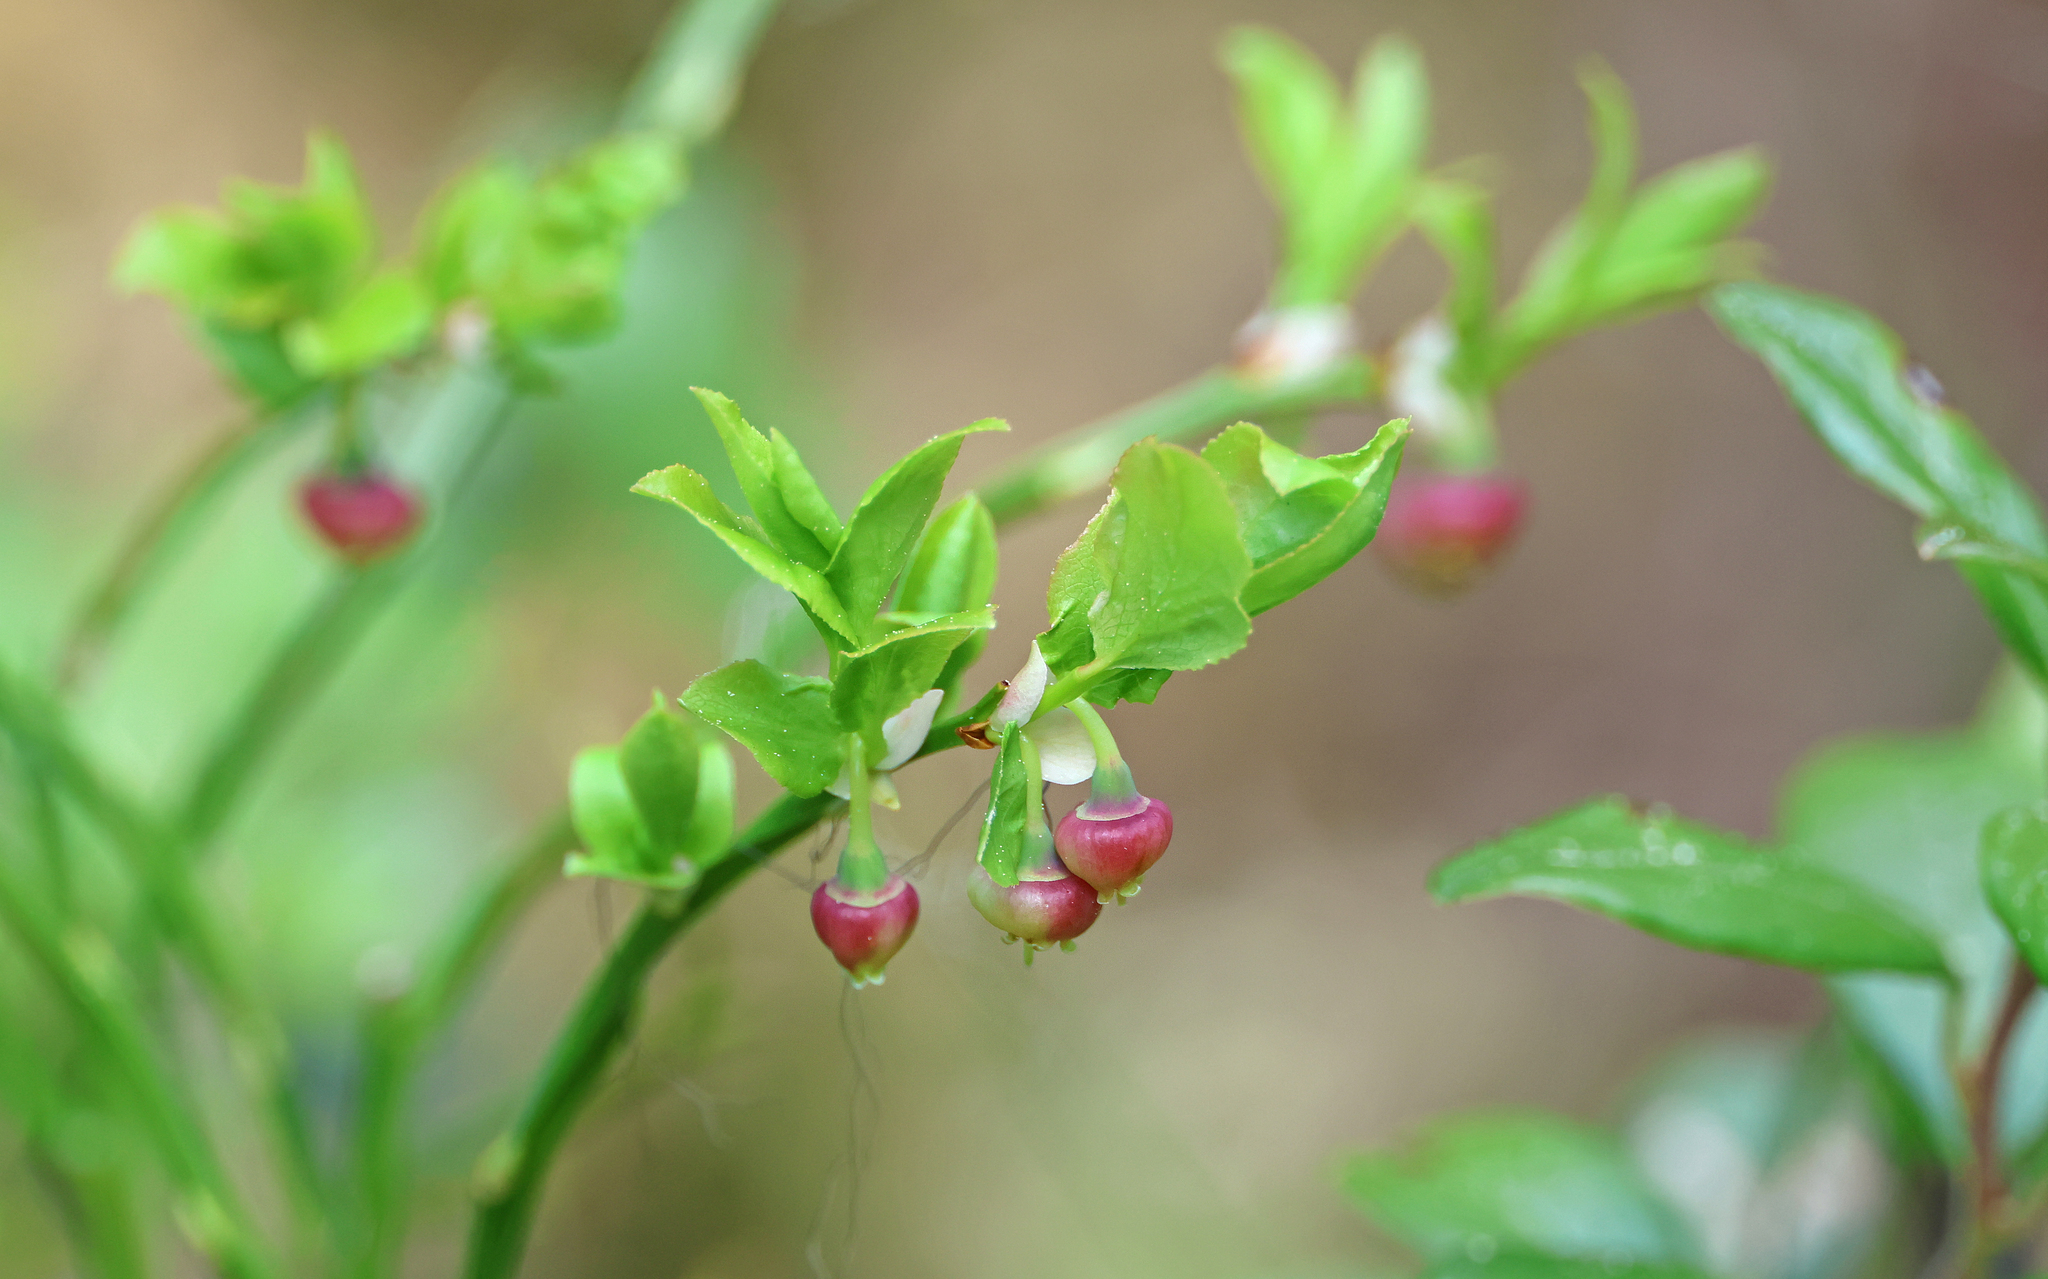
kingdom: Plantae
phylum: Tracheophyta
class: Magnoliopsida
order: Ericales
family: Ericaceae
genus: Vaccinium
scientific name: Vaccinium myrtillus
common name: Bilberry
